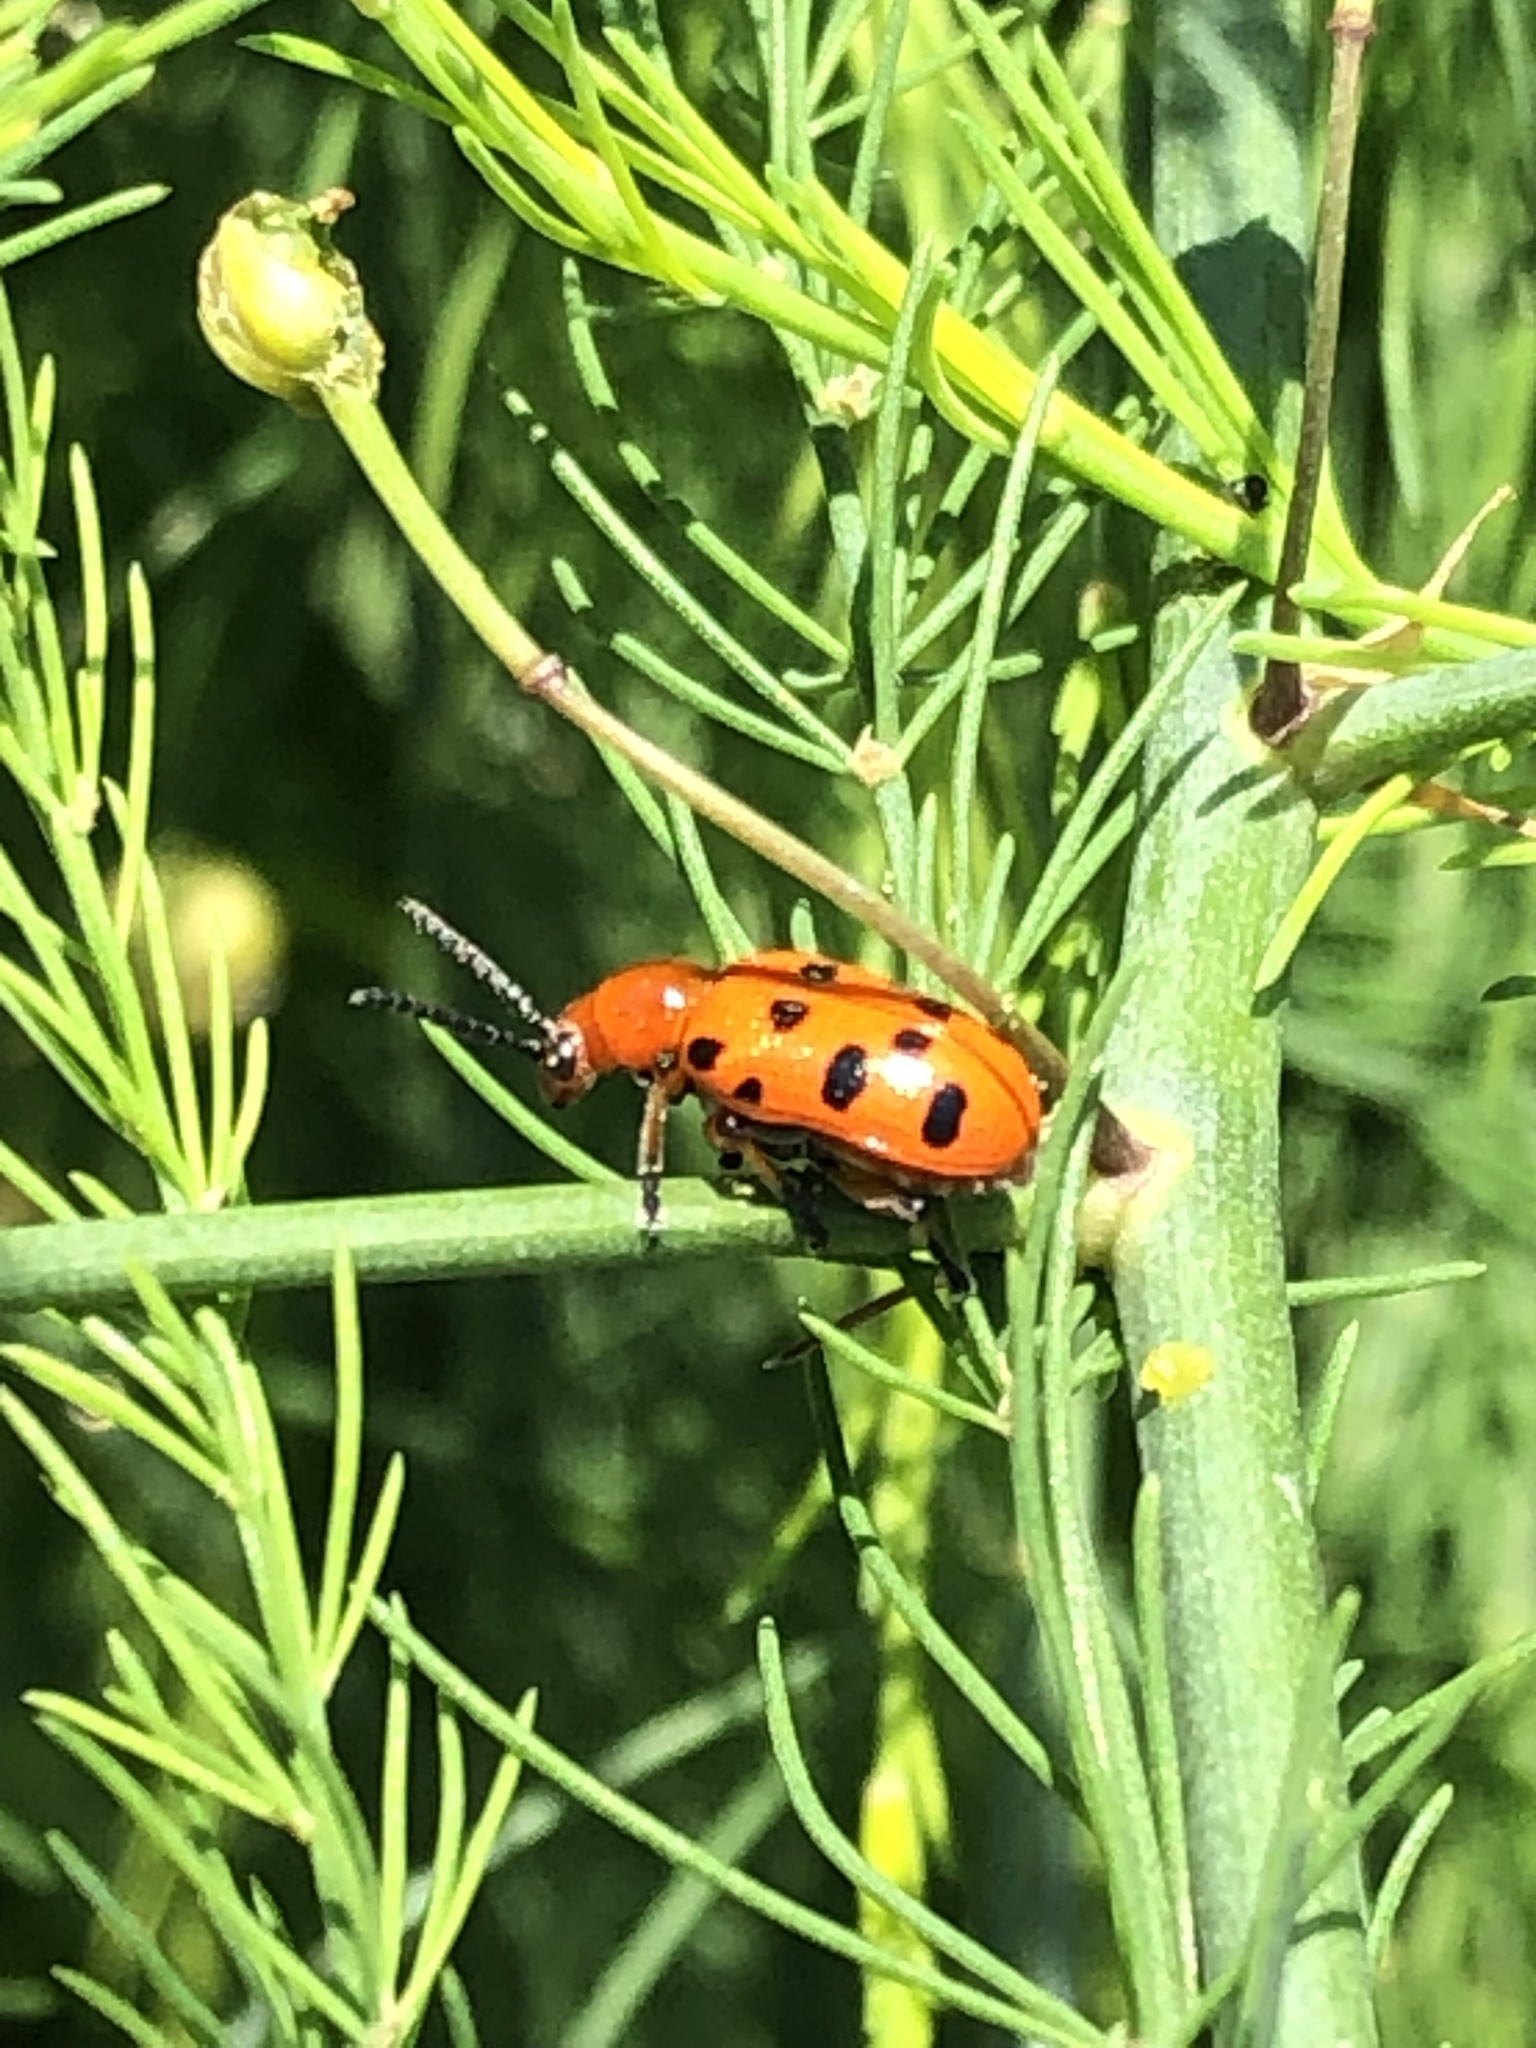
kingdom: Animalia
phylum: Arthropoda
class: Insecta
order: Coleoptera
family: Chrysomelidae
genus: Crioceris
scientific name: Crioceris duodecimpunctata
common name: Twelve-spotted asparagus beetle
